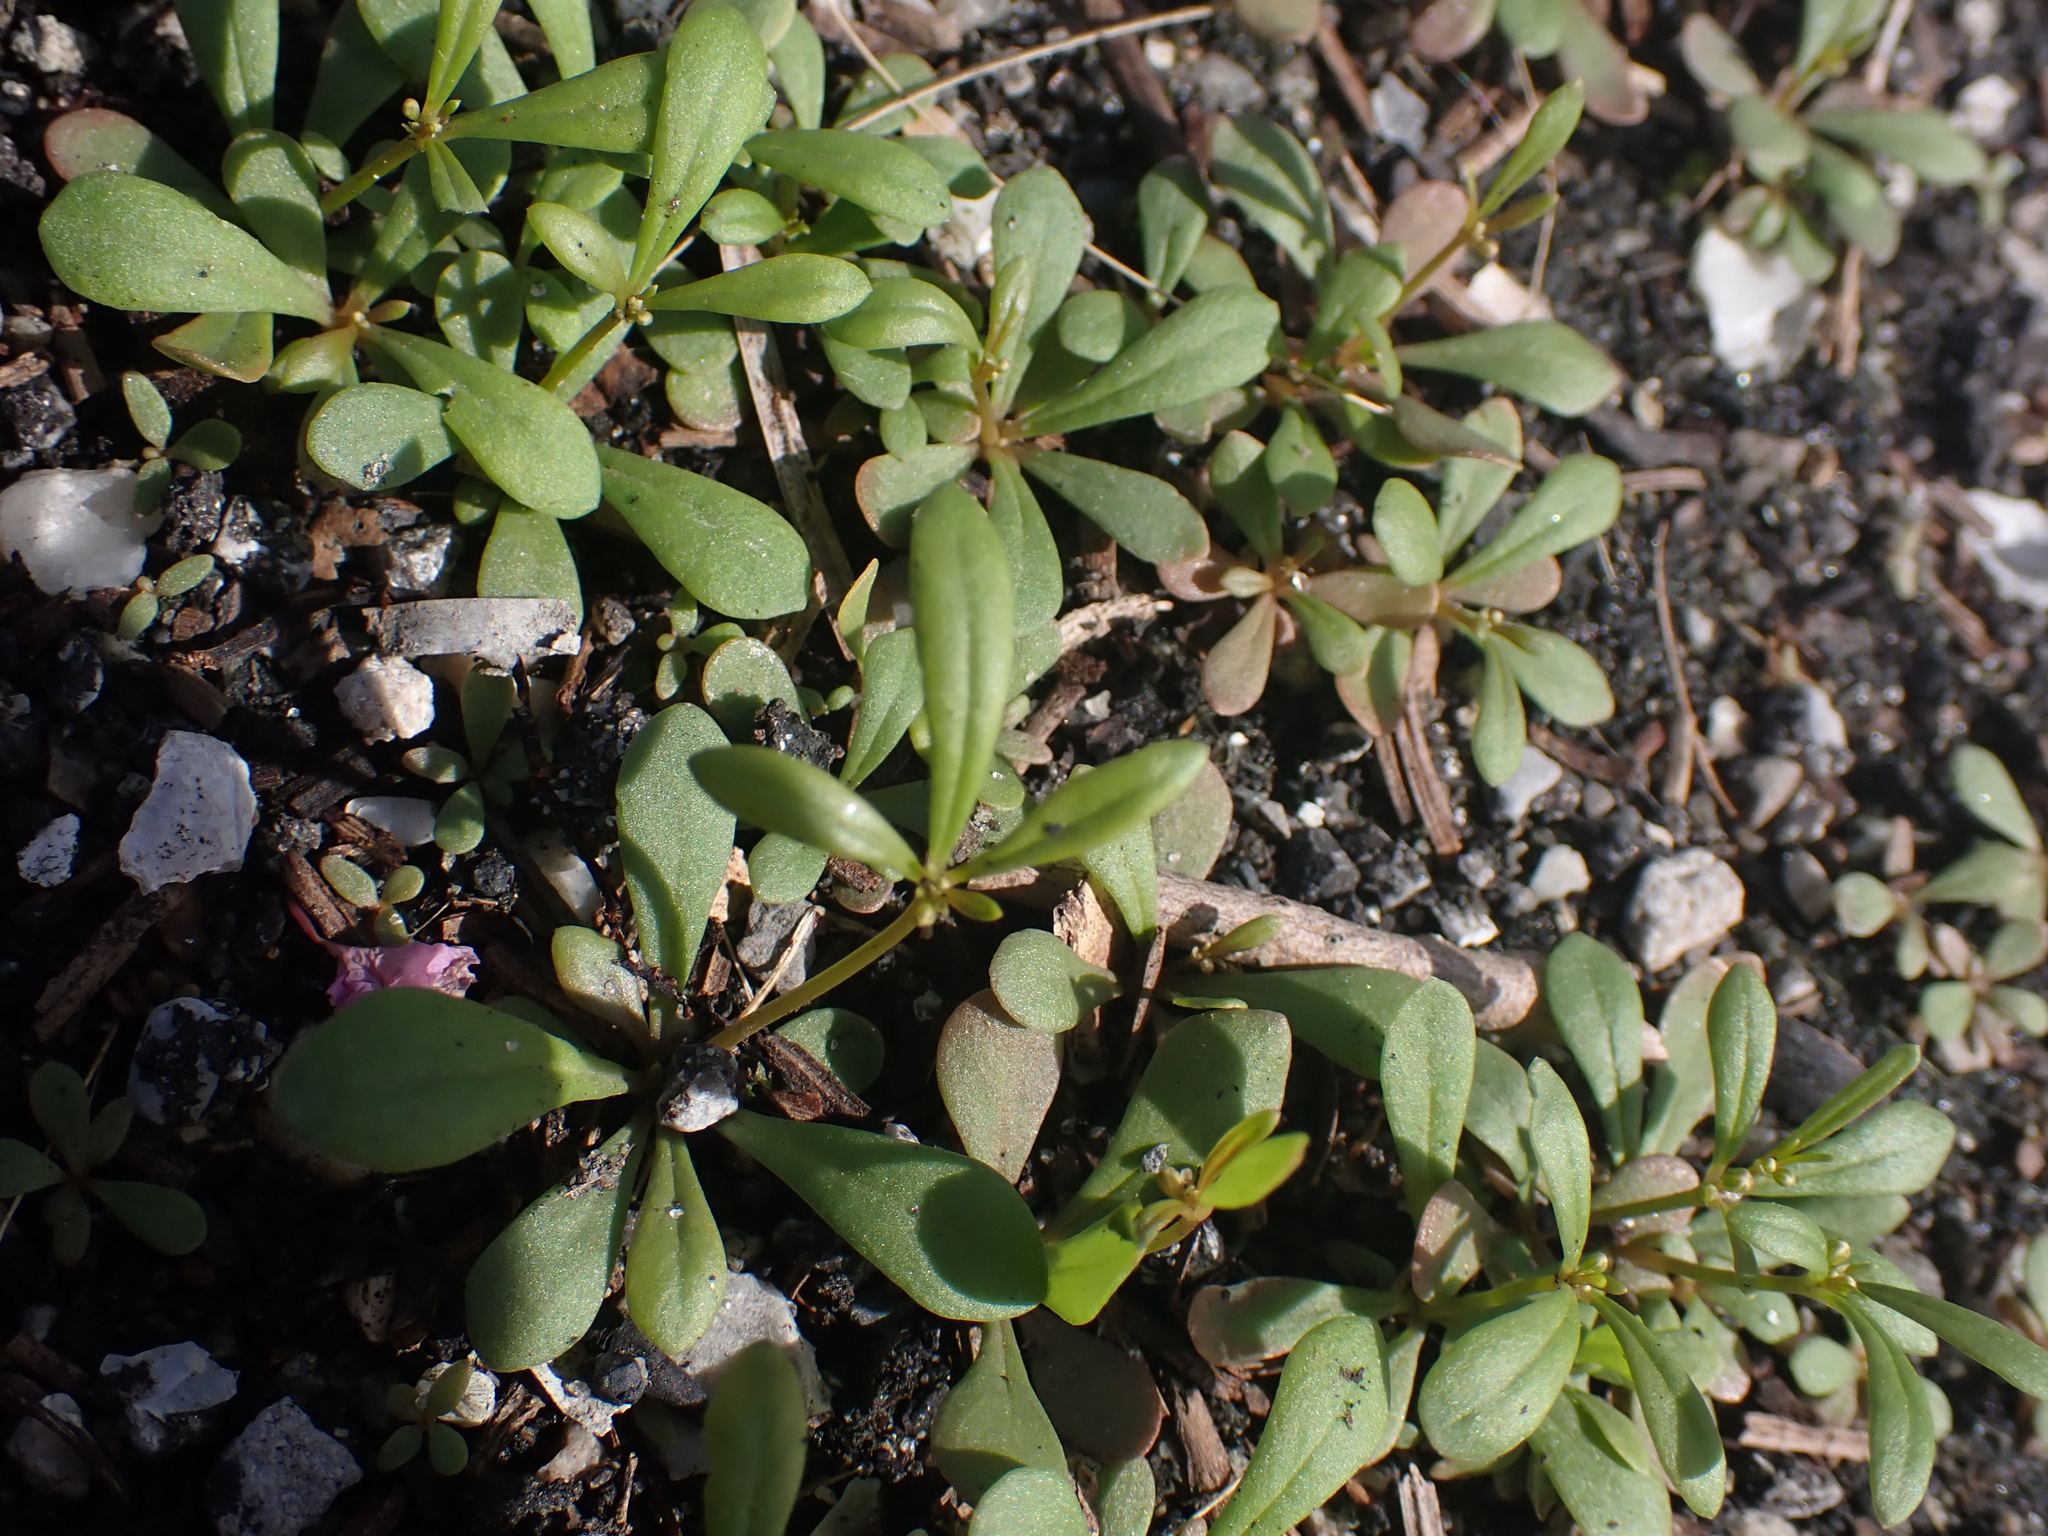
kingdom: Plantae
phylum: Tracheophyta
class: Magnoliopsida
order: Caryophyllales
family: Molluginaceae
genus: Mollugo
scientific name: Mollugo verticillata
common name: Green carpetweed
